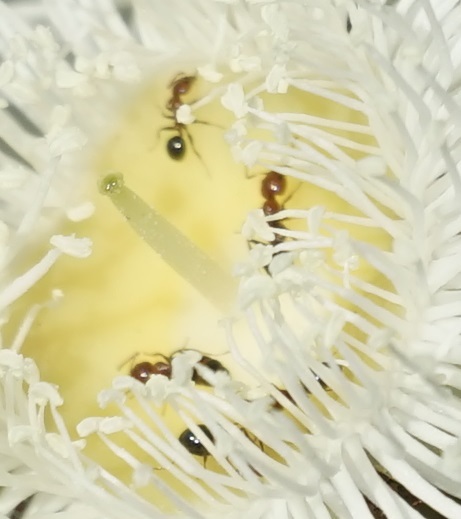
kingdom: Animalia
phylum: Arthropoda
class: Insecta
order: Hymenoptera
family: Formicidae
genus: Froggattella
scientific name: Froggattella kirbii
